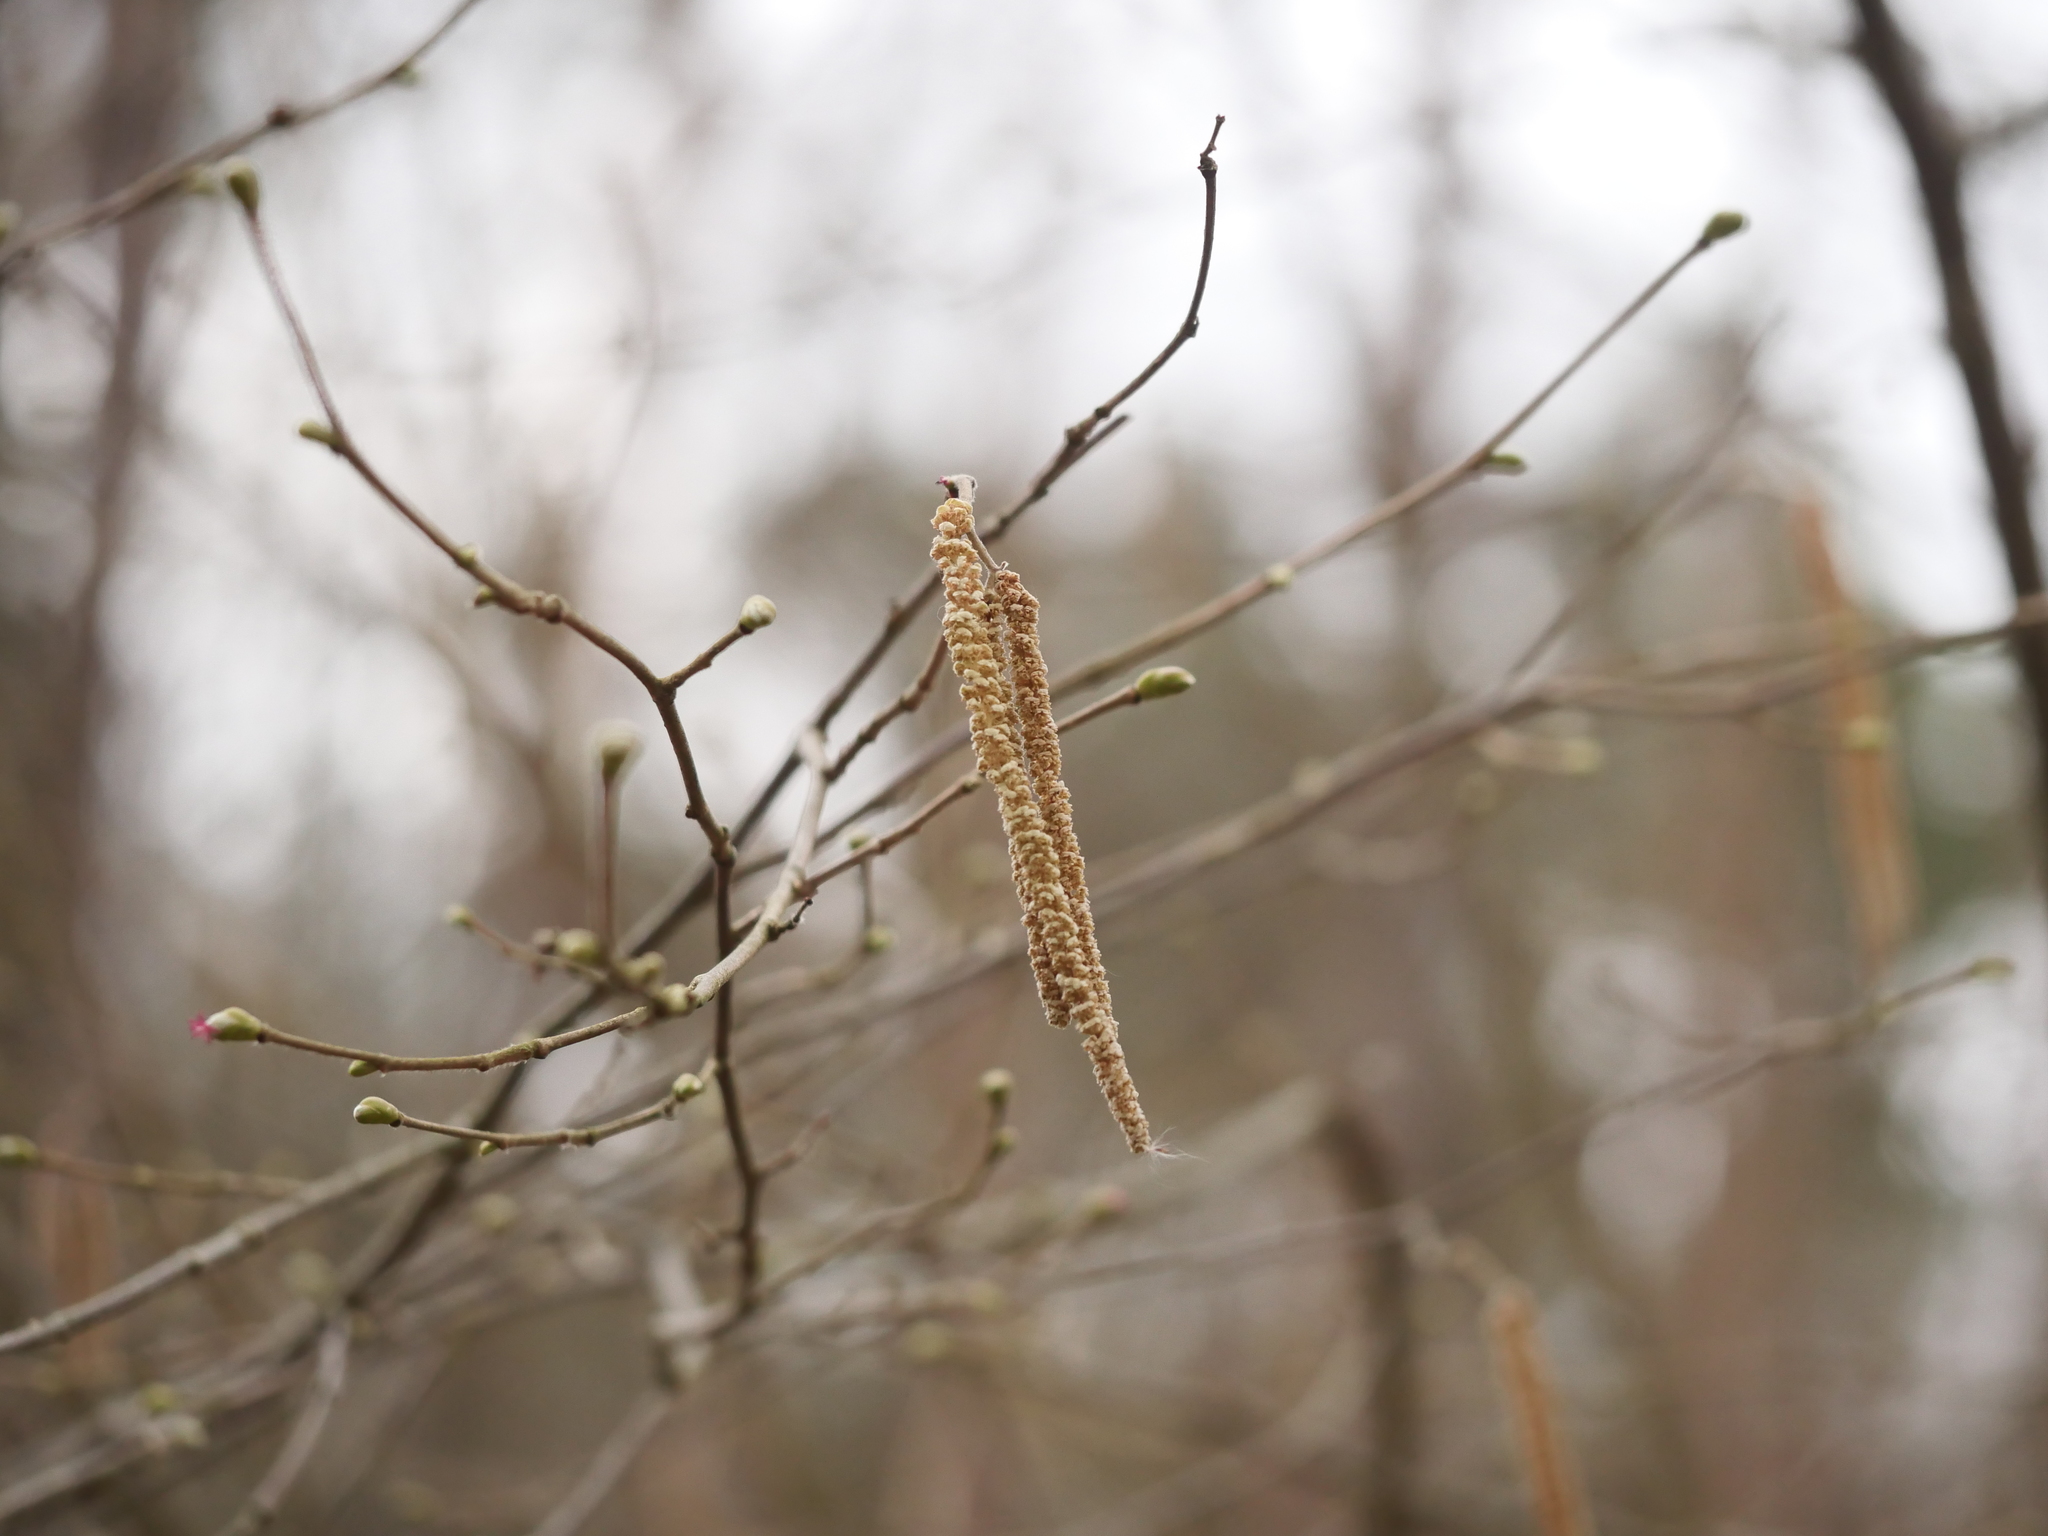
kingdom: Plantae
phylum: Tracheophyta
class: Magnoliopsida
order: Fagales
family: Betulaceae
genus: Corylus
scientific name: Corylus avellana
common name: European hazel
